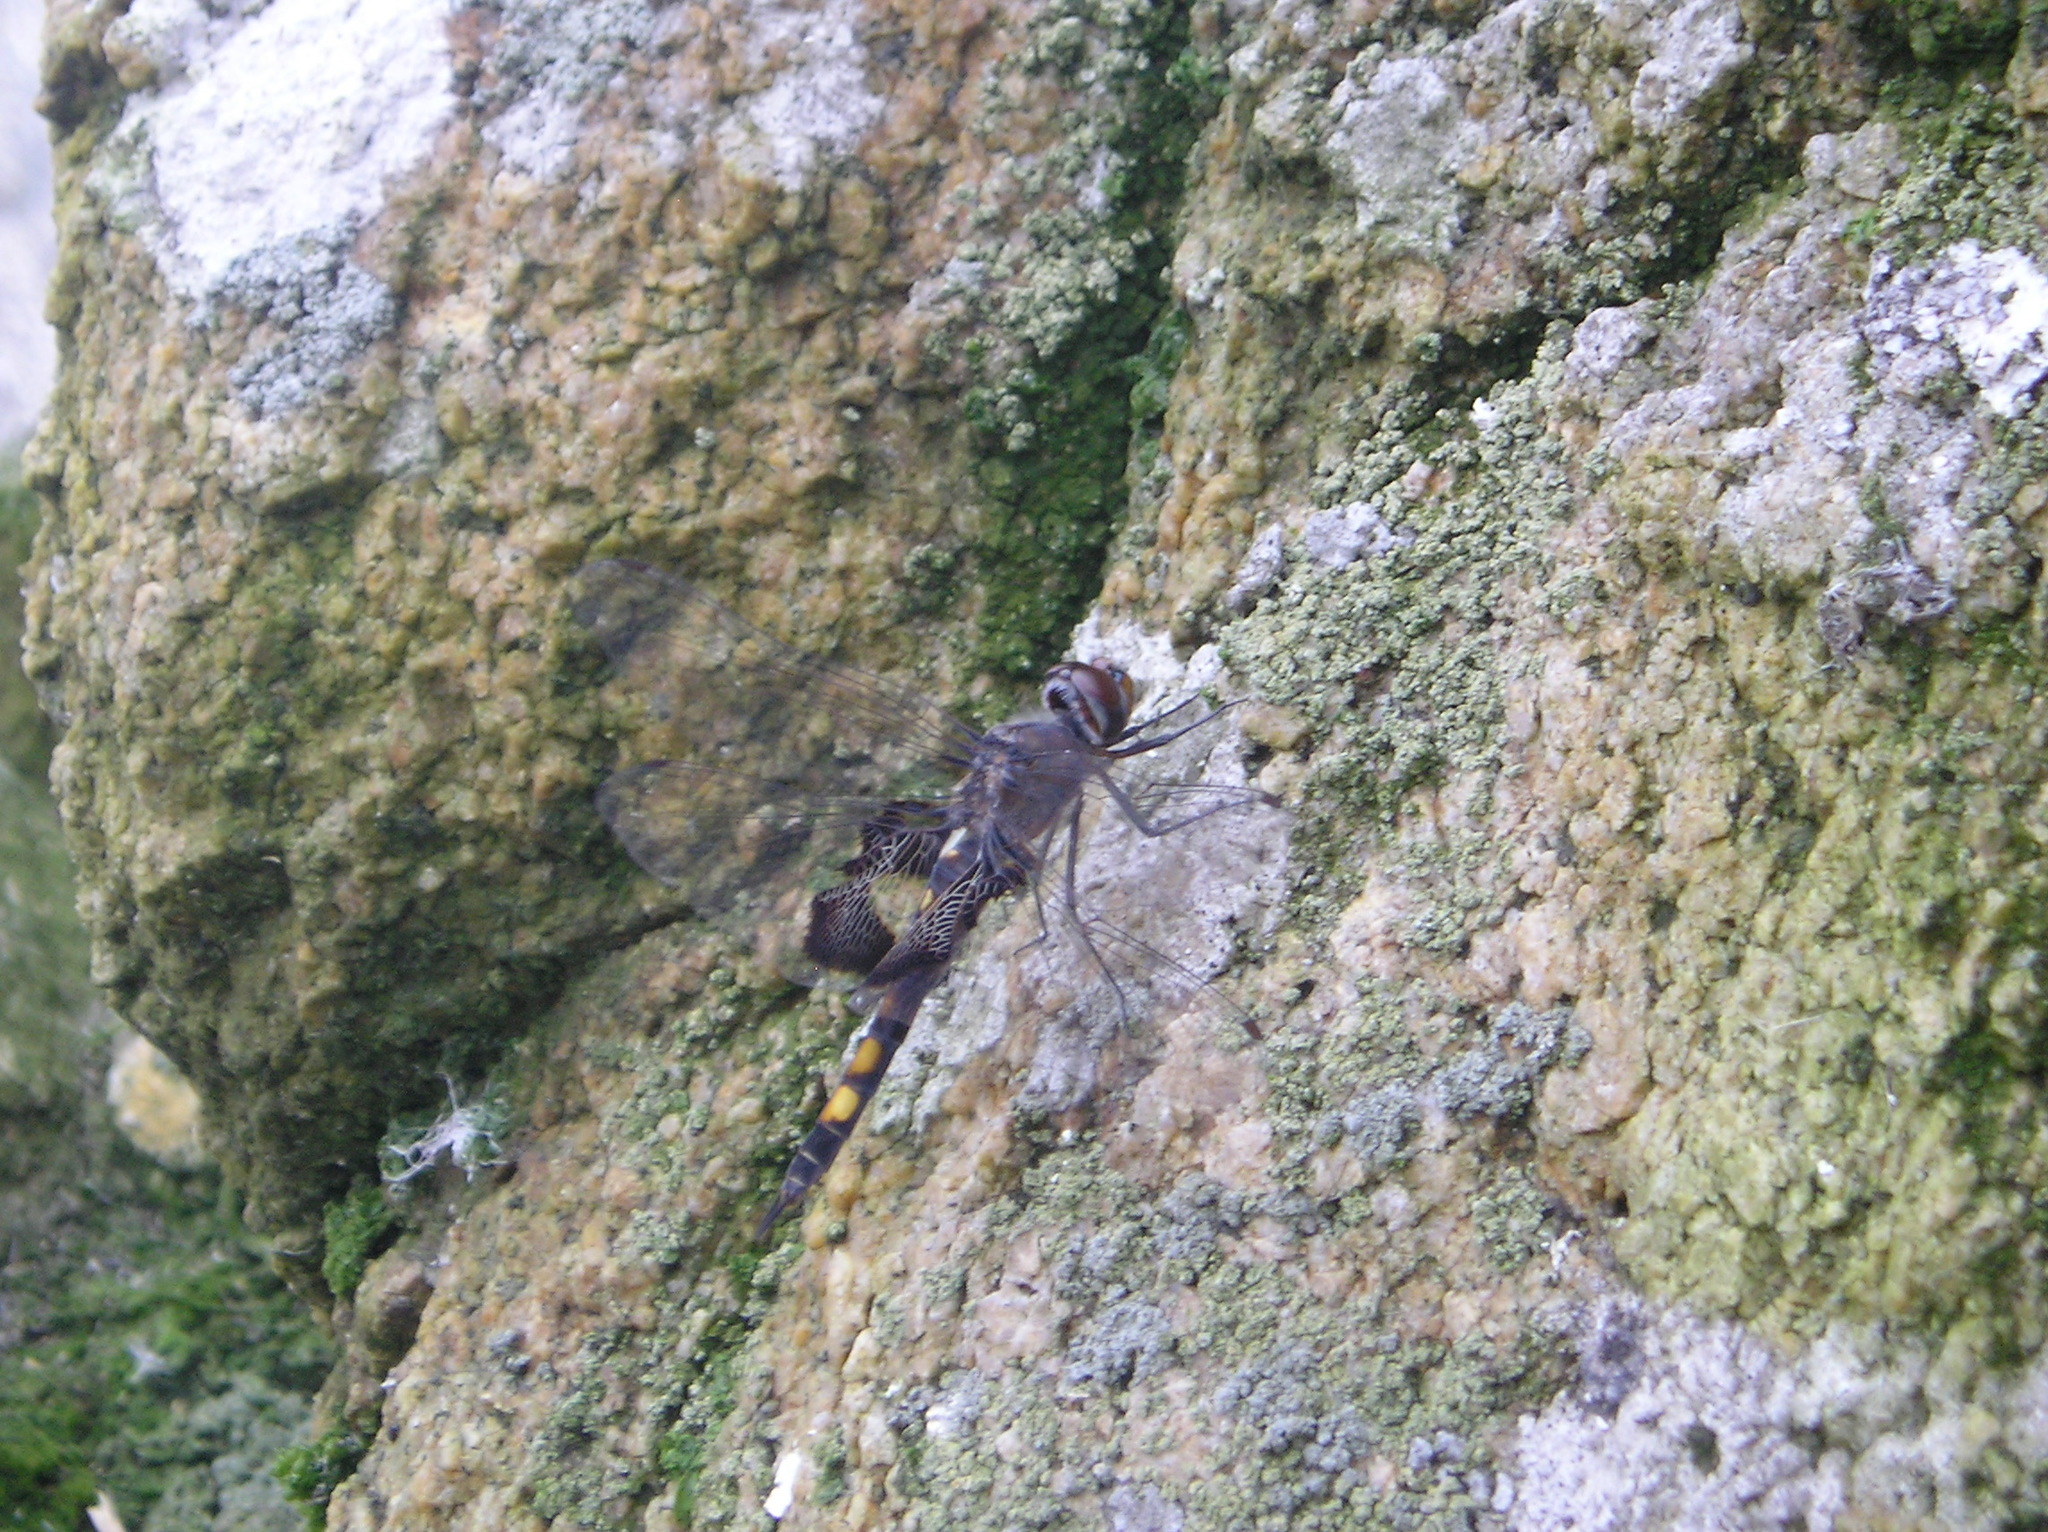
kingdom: Animalia
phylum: Arthropoda
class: Insecta
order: Odonata
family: Libellulidae
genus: Tramea
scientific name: Tramea lacerata
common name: Black saddlebags
